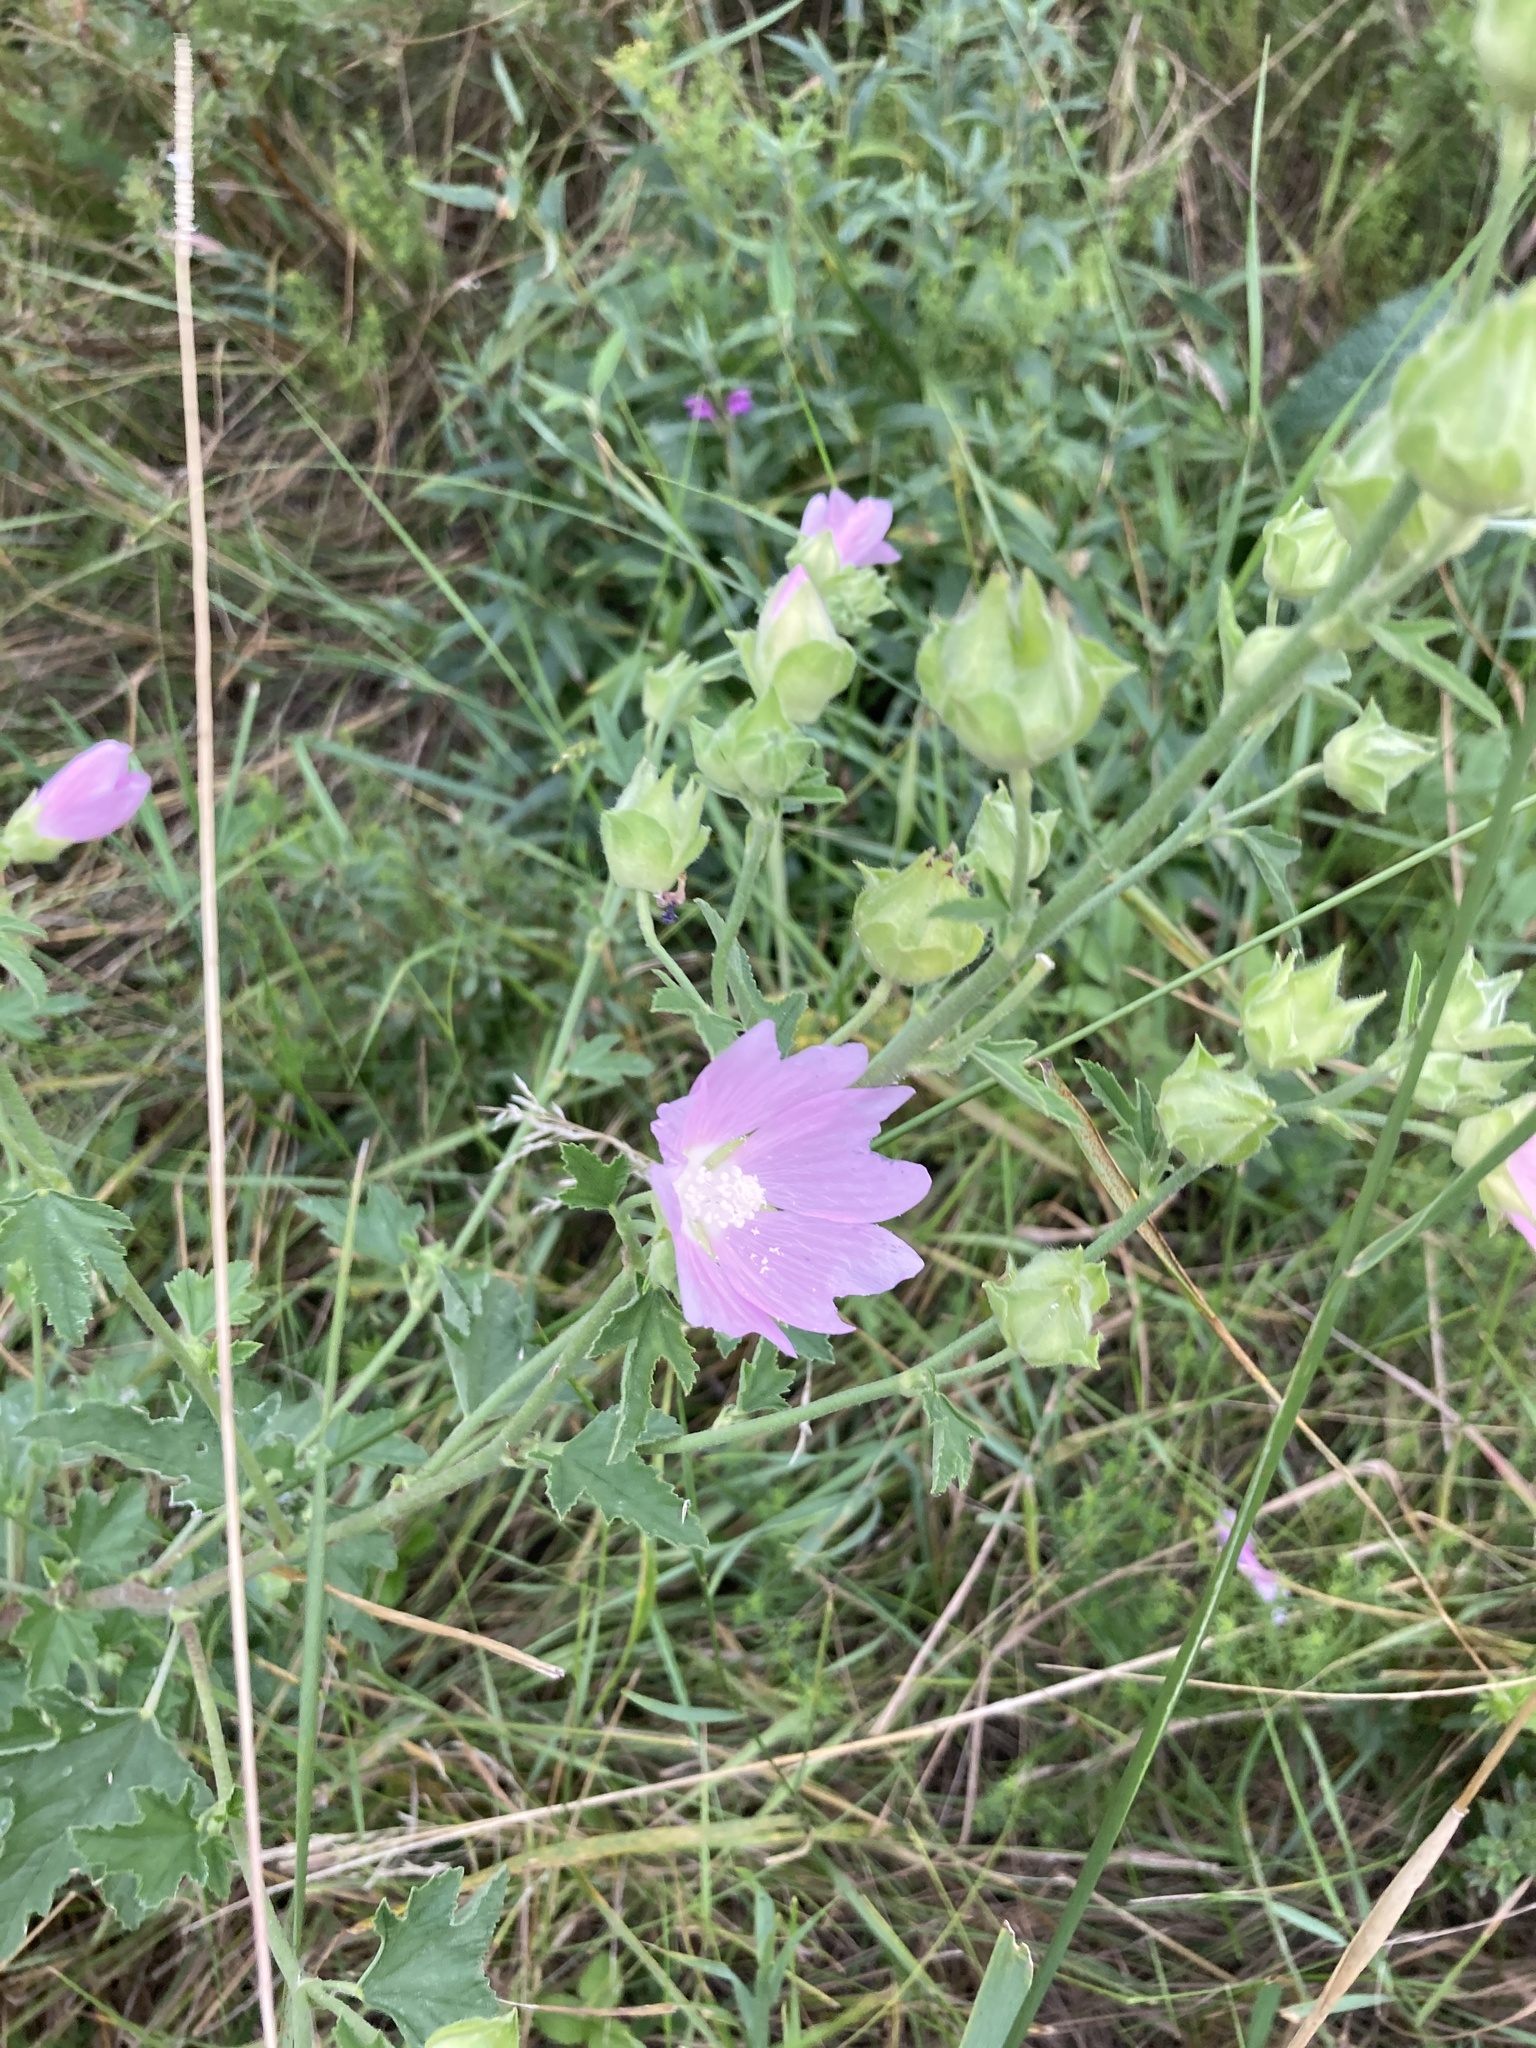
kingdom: Plantae
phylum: Tracheophyta
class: Magnoliopsida
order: Malvales
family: Malvaceae
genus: Malva
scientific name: Malva thuringiaca
